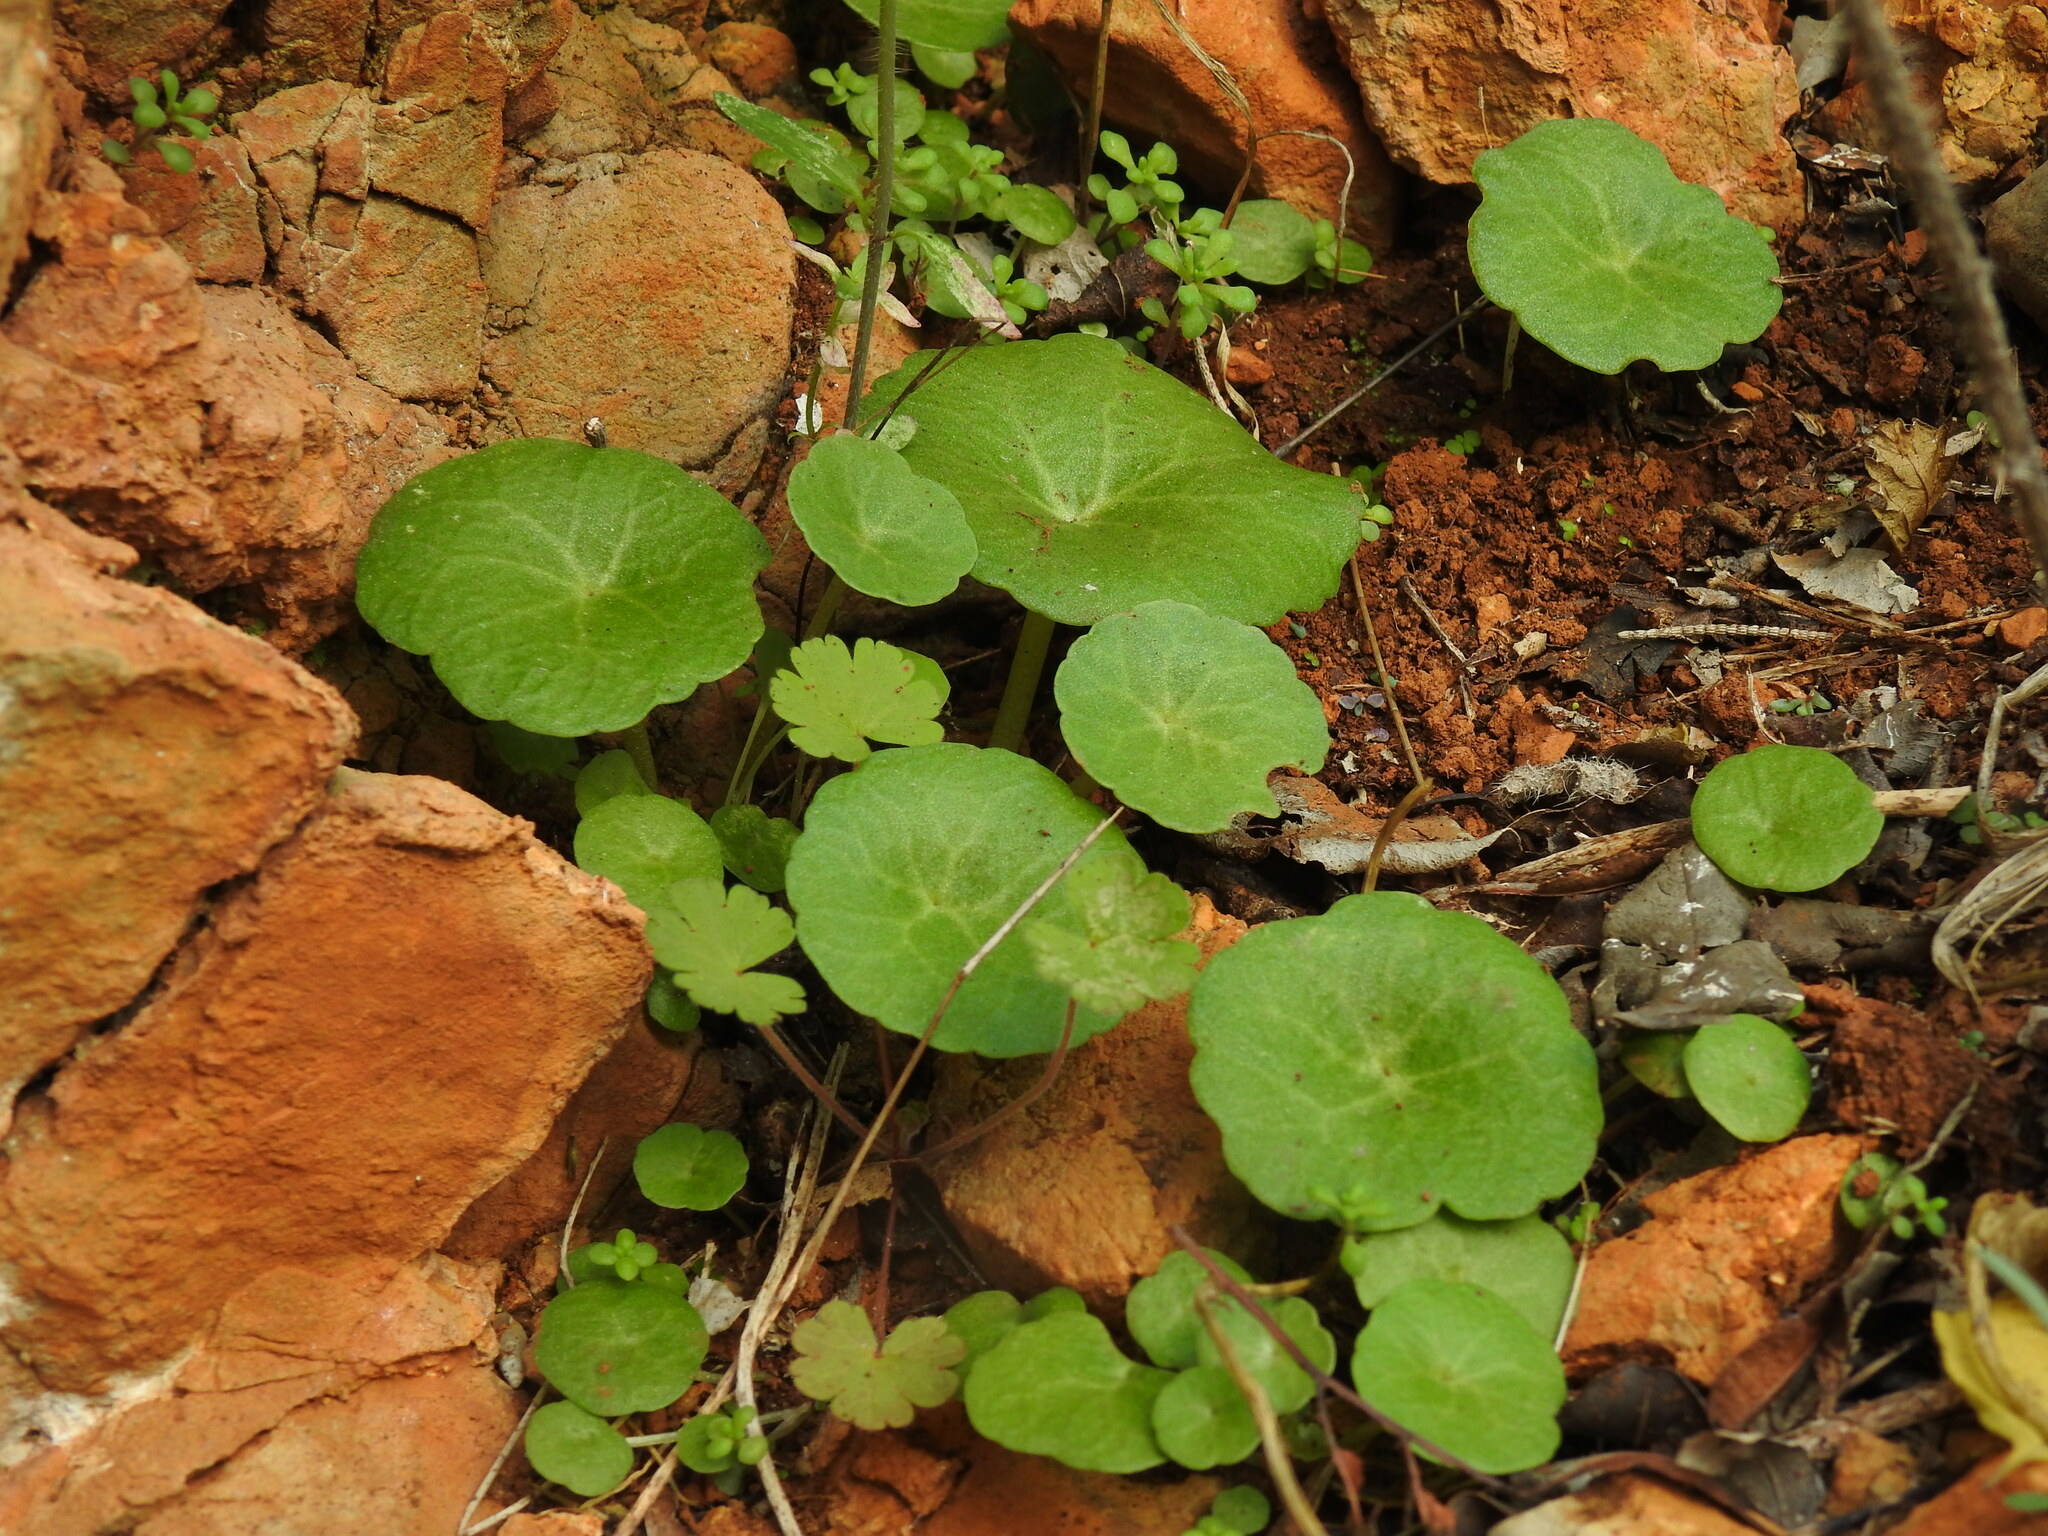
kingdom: Plantae
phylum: Tracheophyta
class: Magnoliopsida
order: Saxifragales
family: Crassulaceae
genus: Umbilicus
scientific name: Umbilicus rupestris
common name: Navelwort
